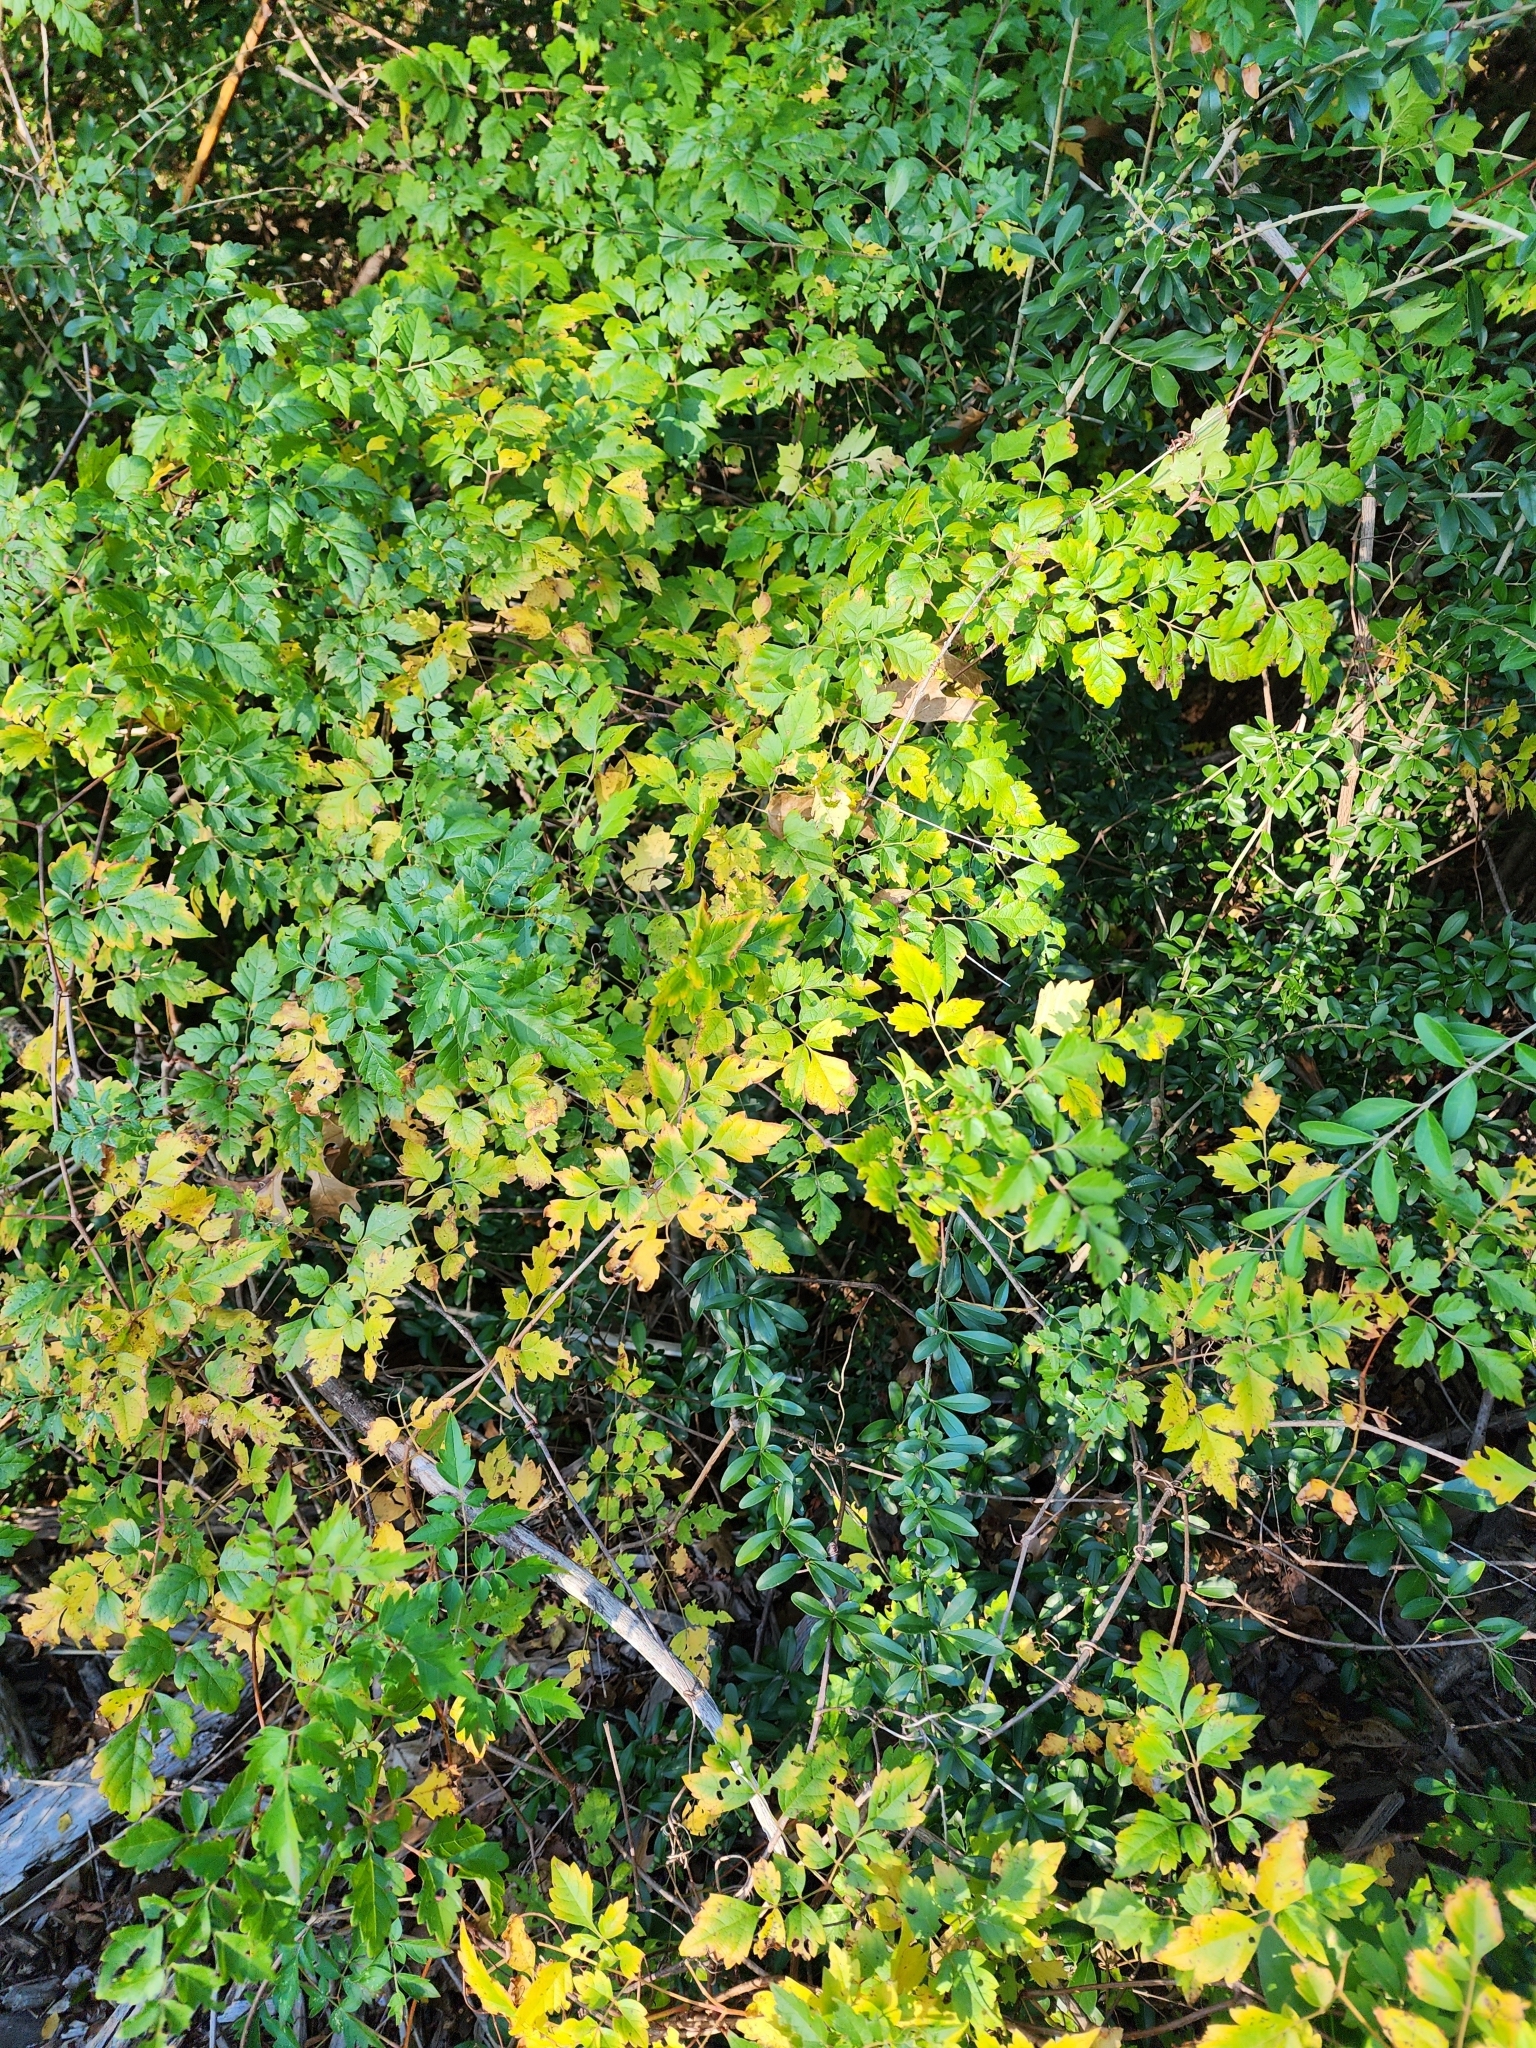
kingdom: Plantae
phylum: Tracheophyta
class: Magnoliopsida
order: Vitales
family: Vitaceae
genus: Nekemias
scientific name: Nekemias arborea
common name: Peppervine
